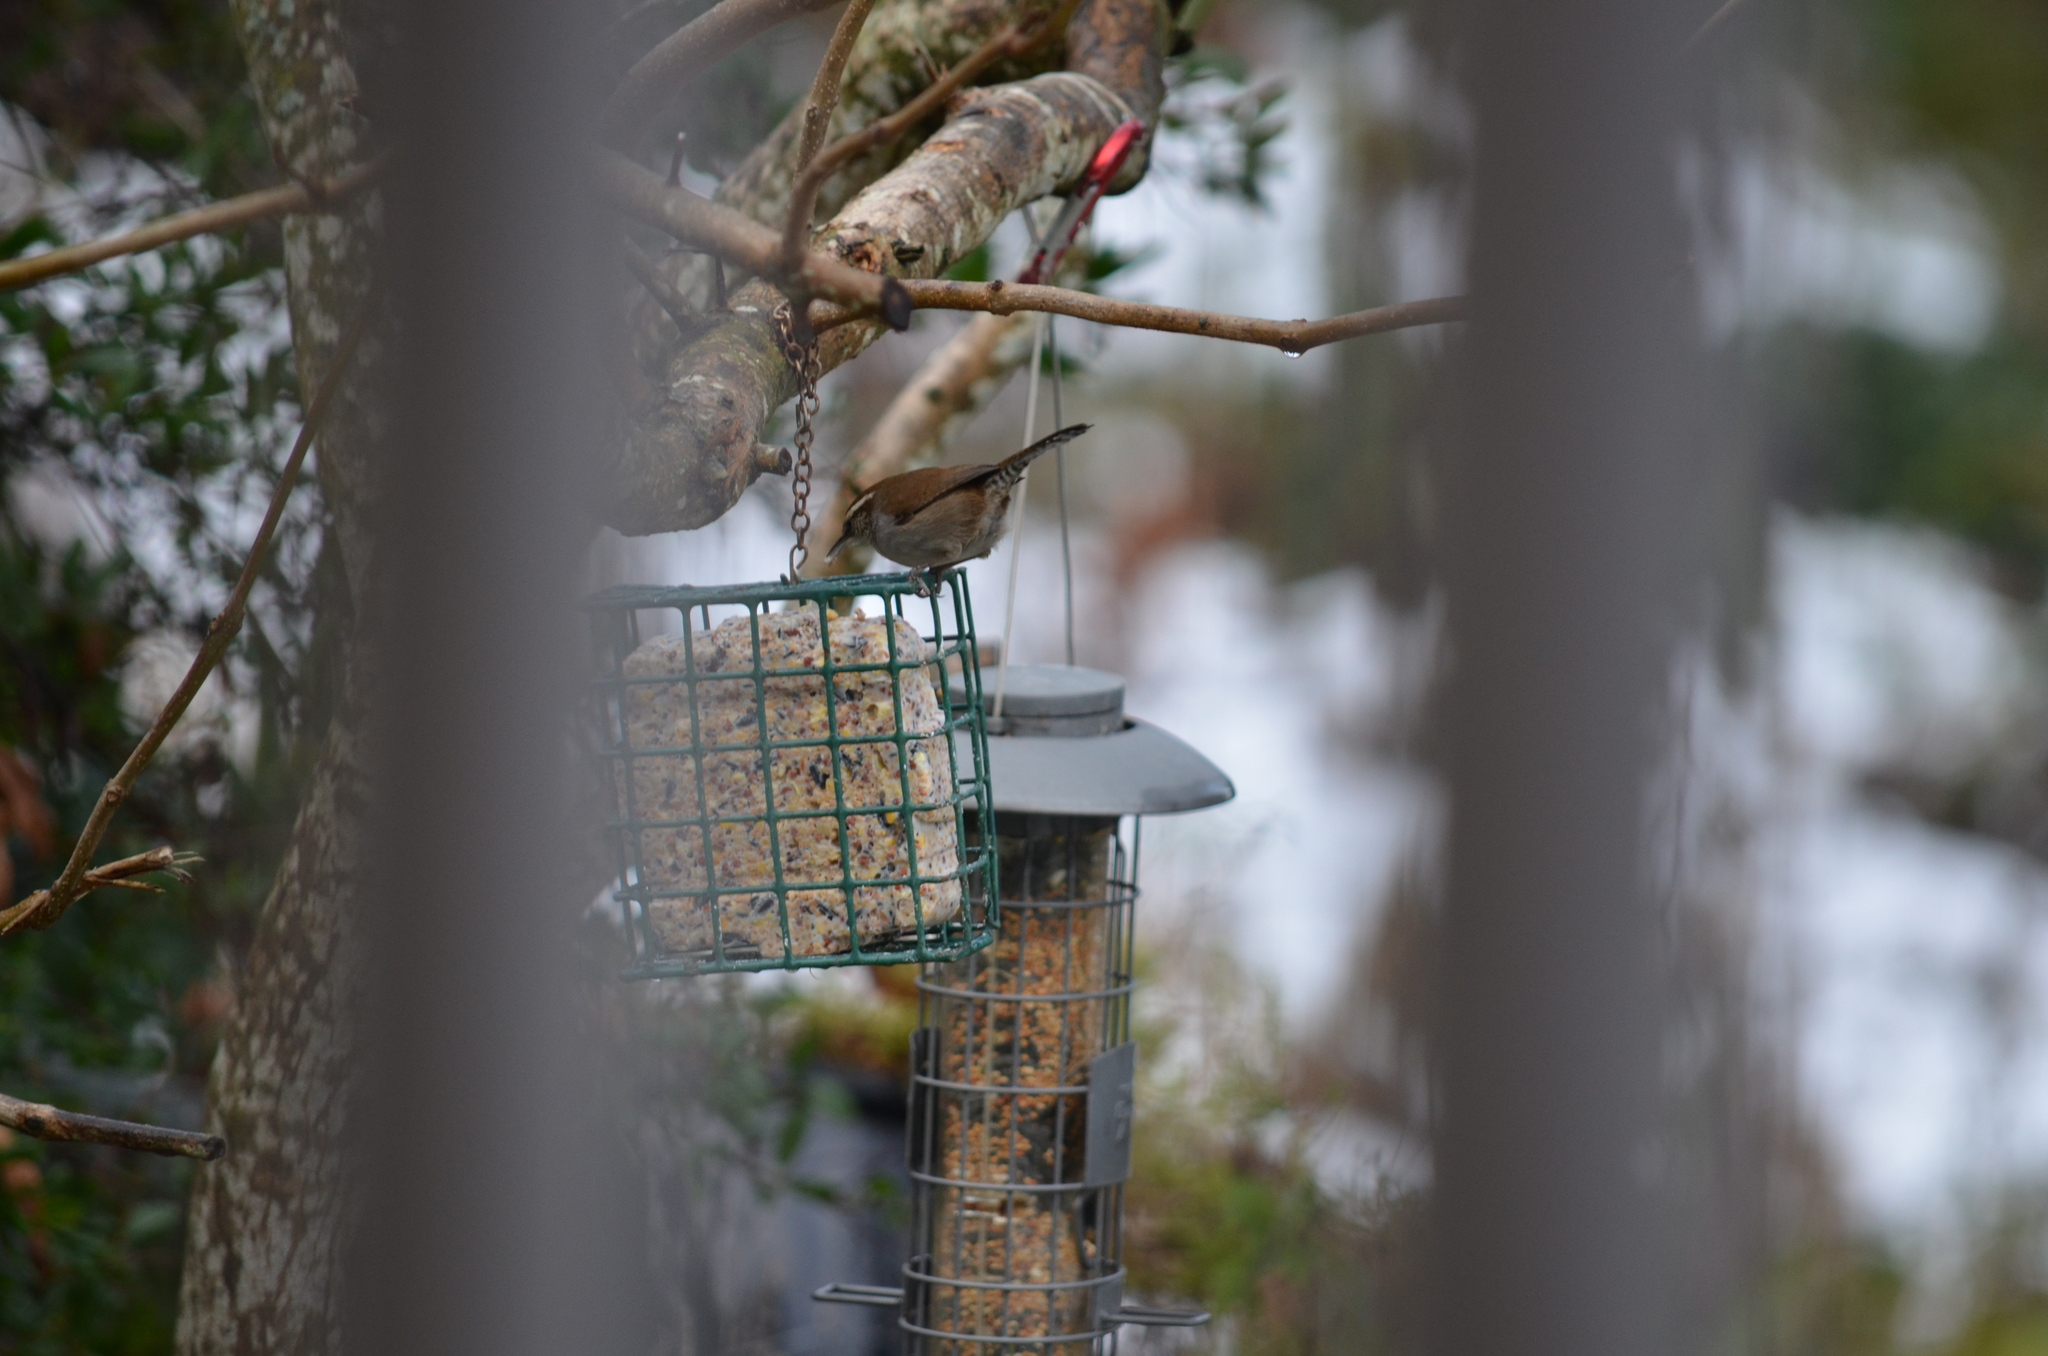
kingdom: Animalia
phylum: Chordata
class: Aves
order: Passeriformes
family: Troglodytidae
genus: Thryomanes
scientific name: Thryomanes bewickii
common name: Bewick's wren
